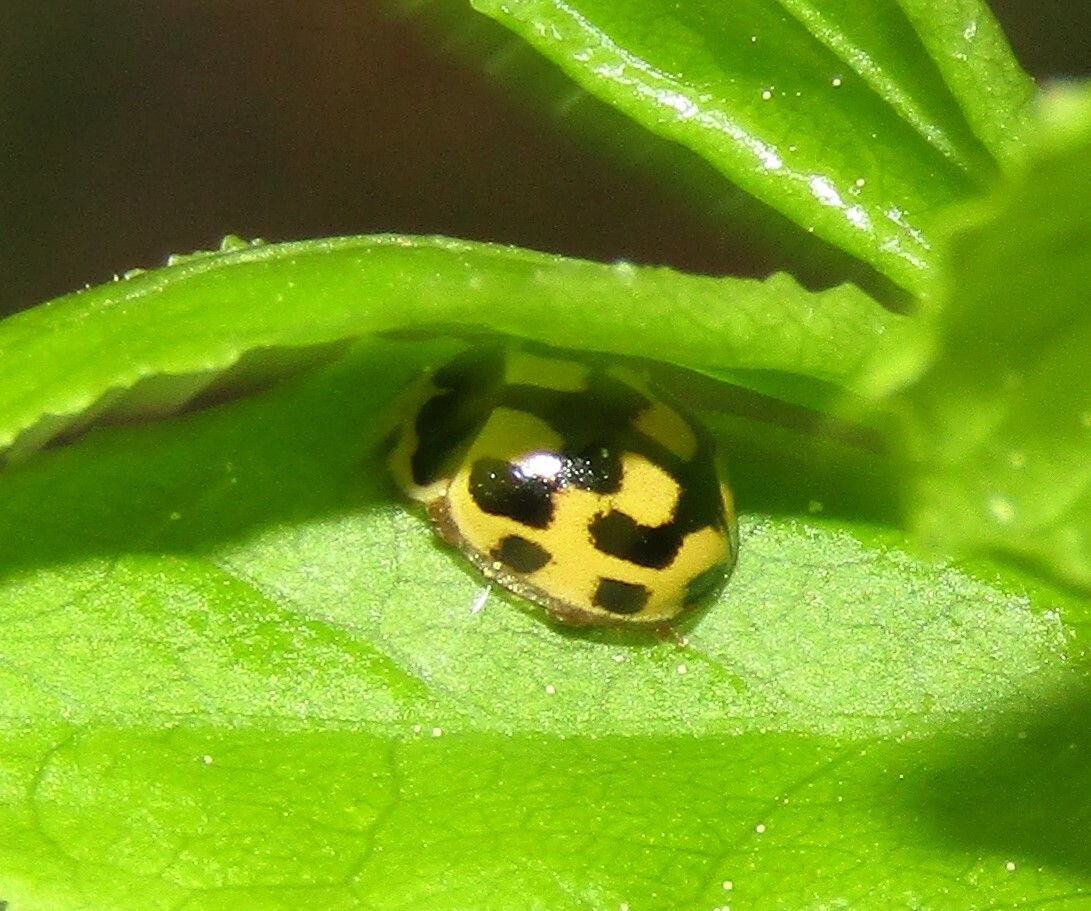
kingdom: Animalia
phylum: Arthropoda
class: Insecta
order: Coleoptera
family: Coccinellidae
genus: Propylaea
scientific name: Propylaea quatuordecimpunctata
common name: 14-spotted ladybird beetle
